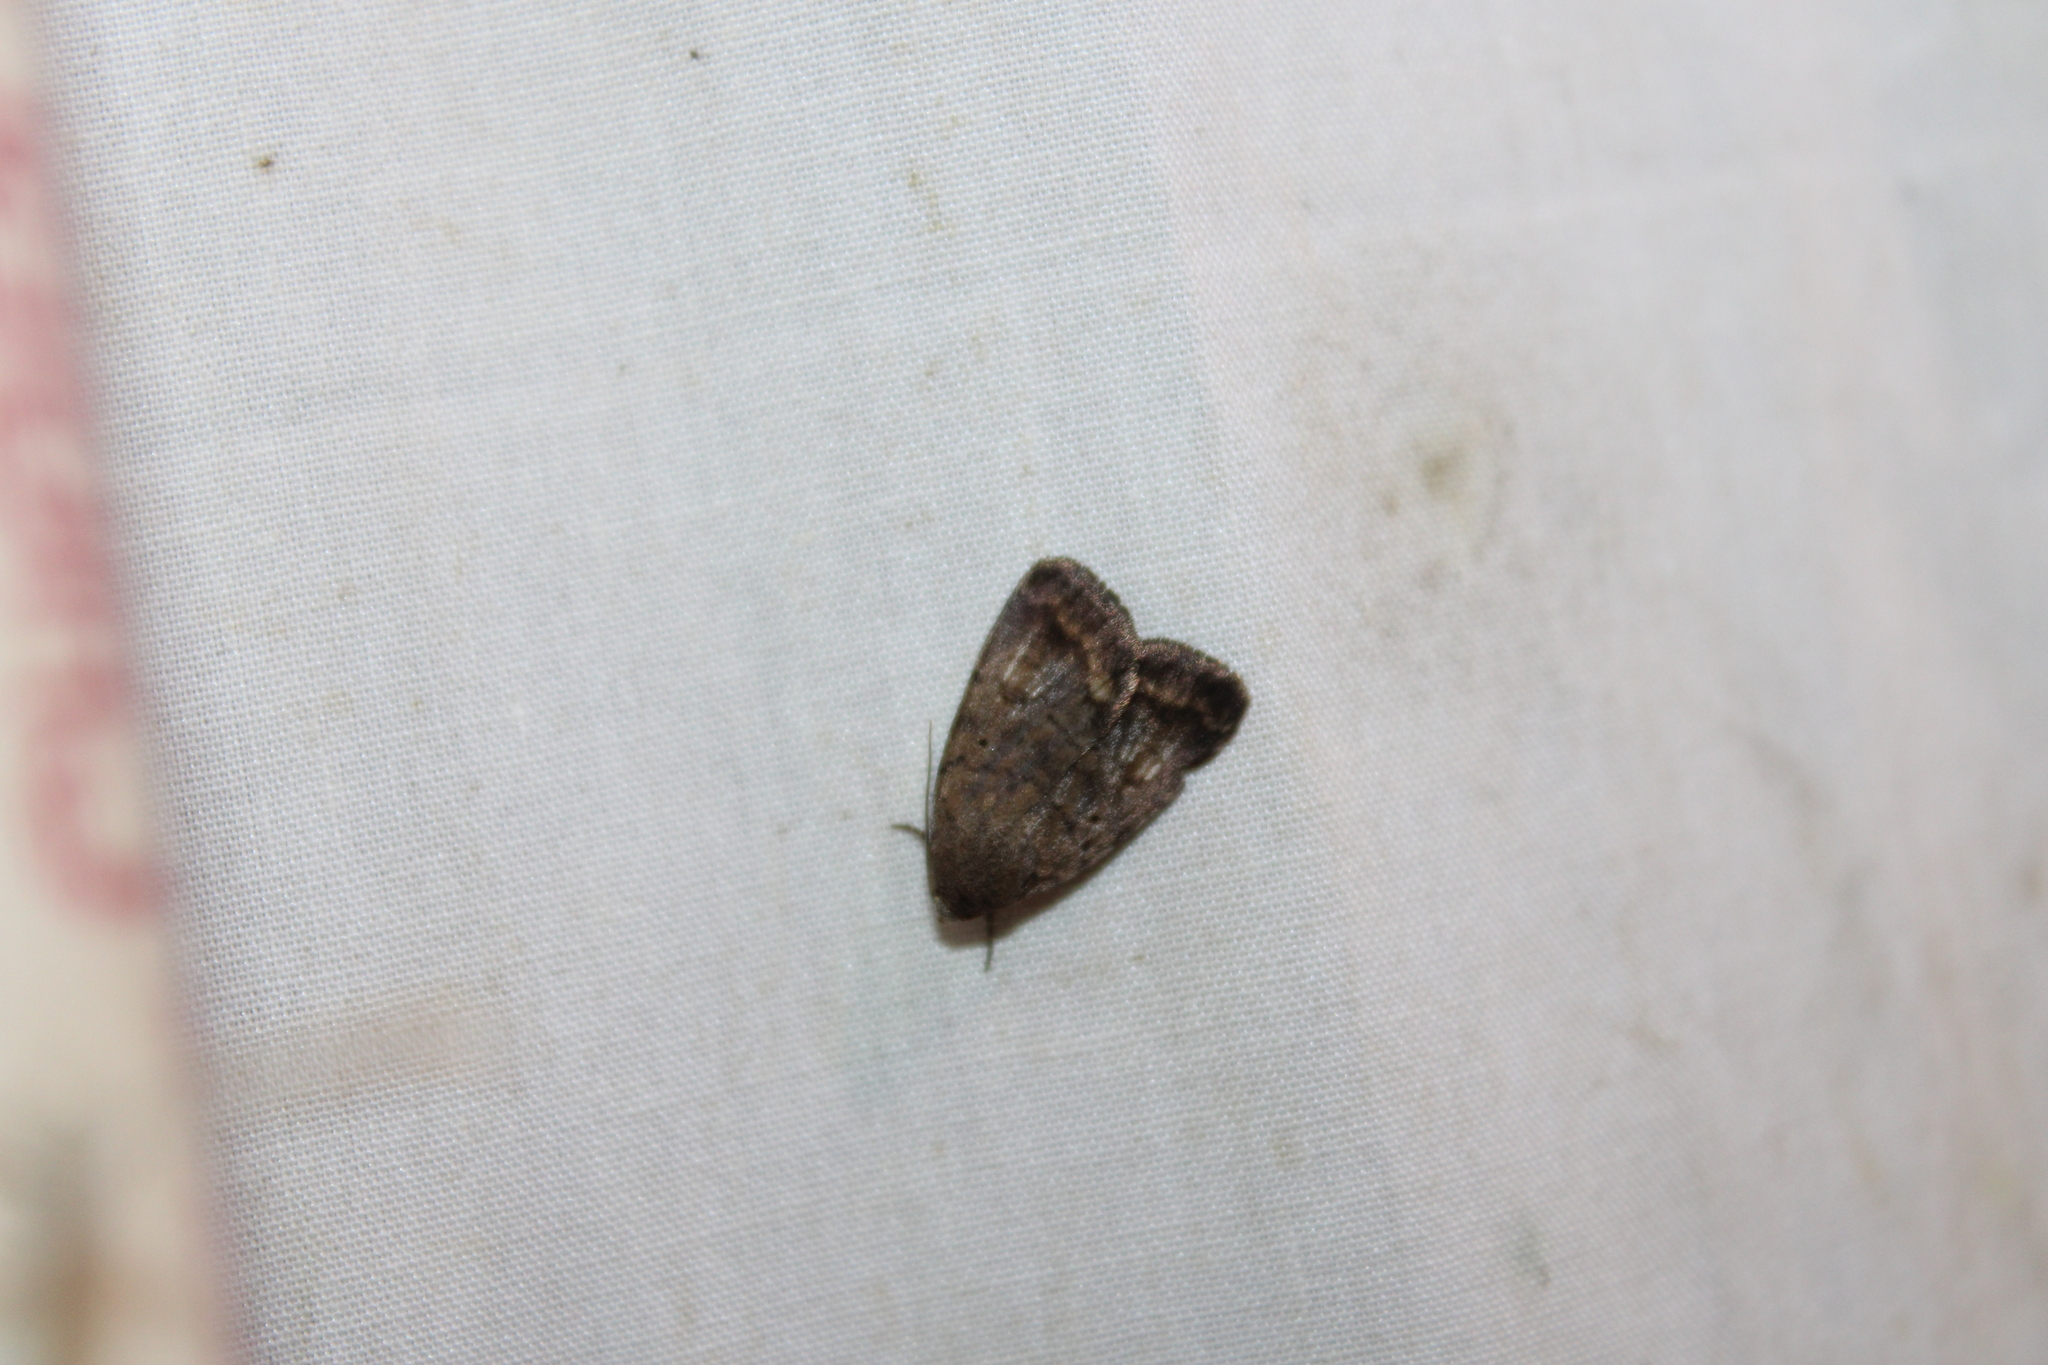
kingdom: Animalia
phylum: Arthropoda
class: Insecta
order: Lepidoptera
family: Noctuidae
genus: Athetis
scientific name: Athetis tarda
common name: Slowpoke moth
